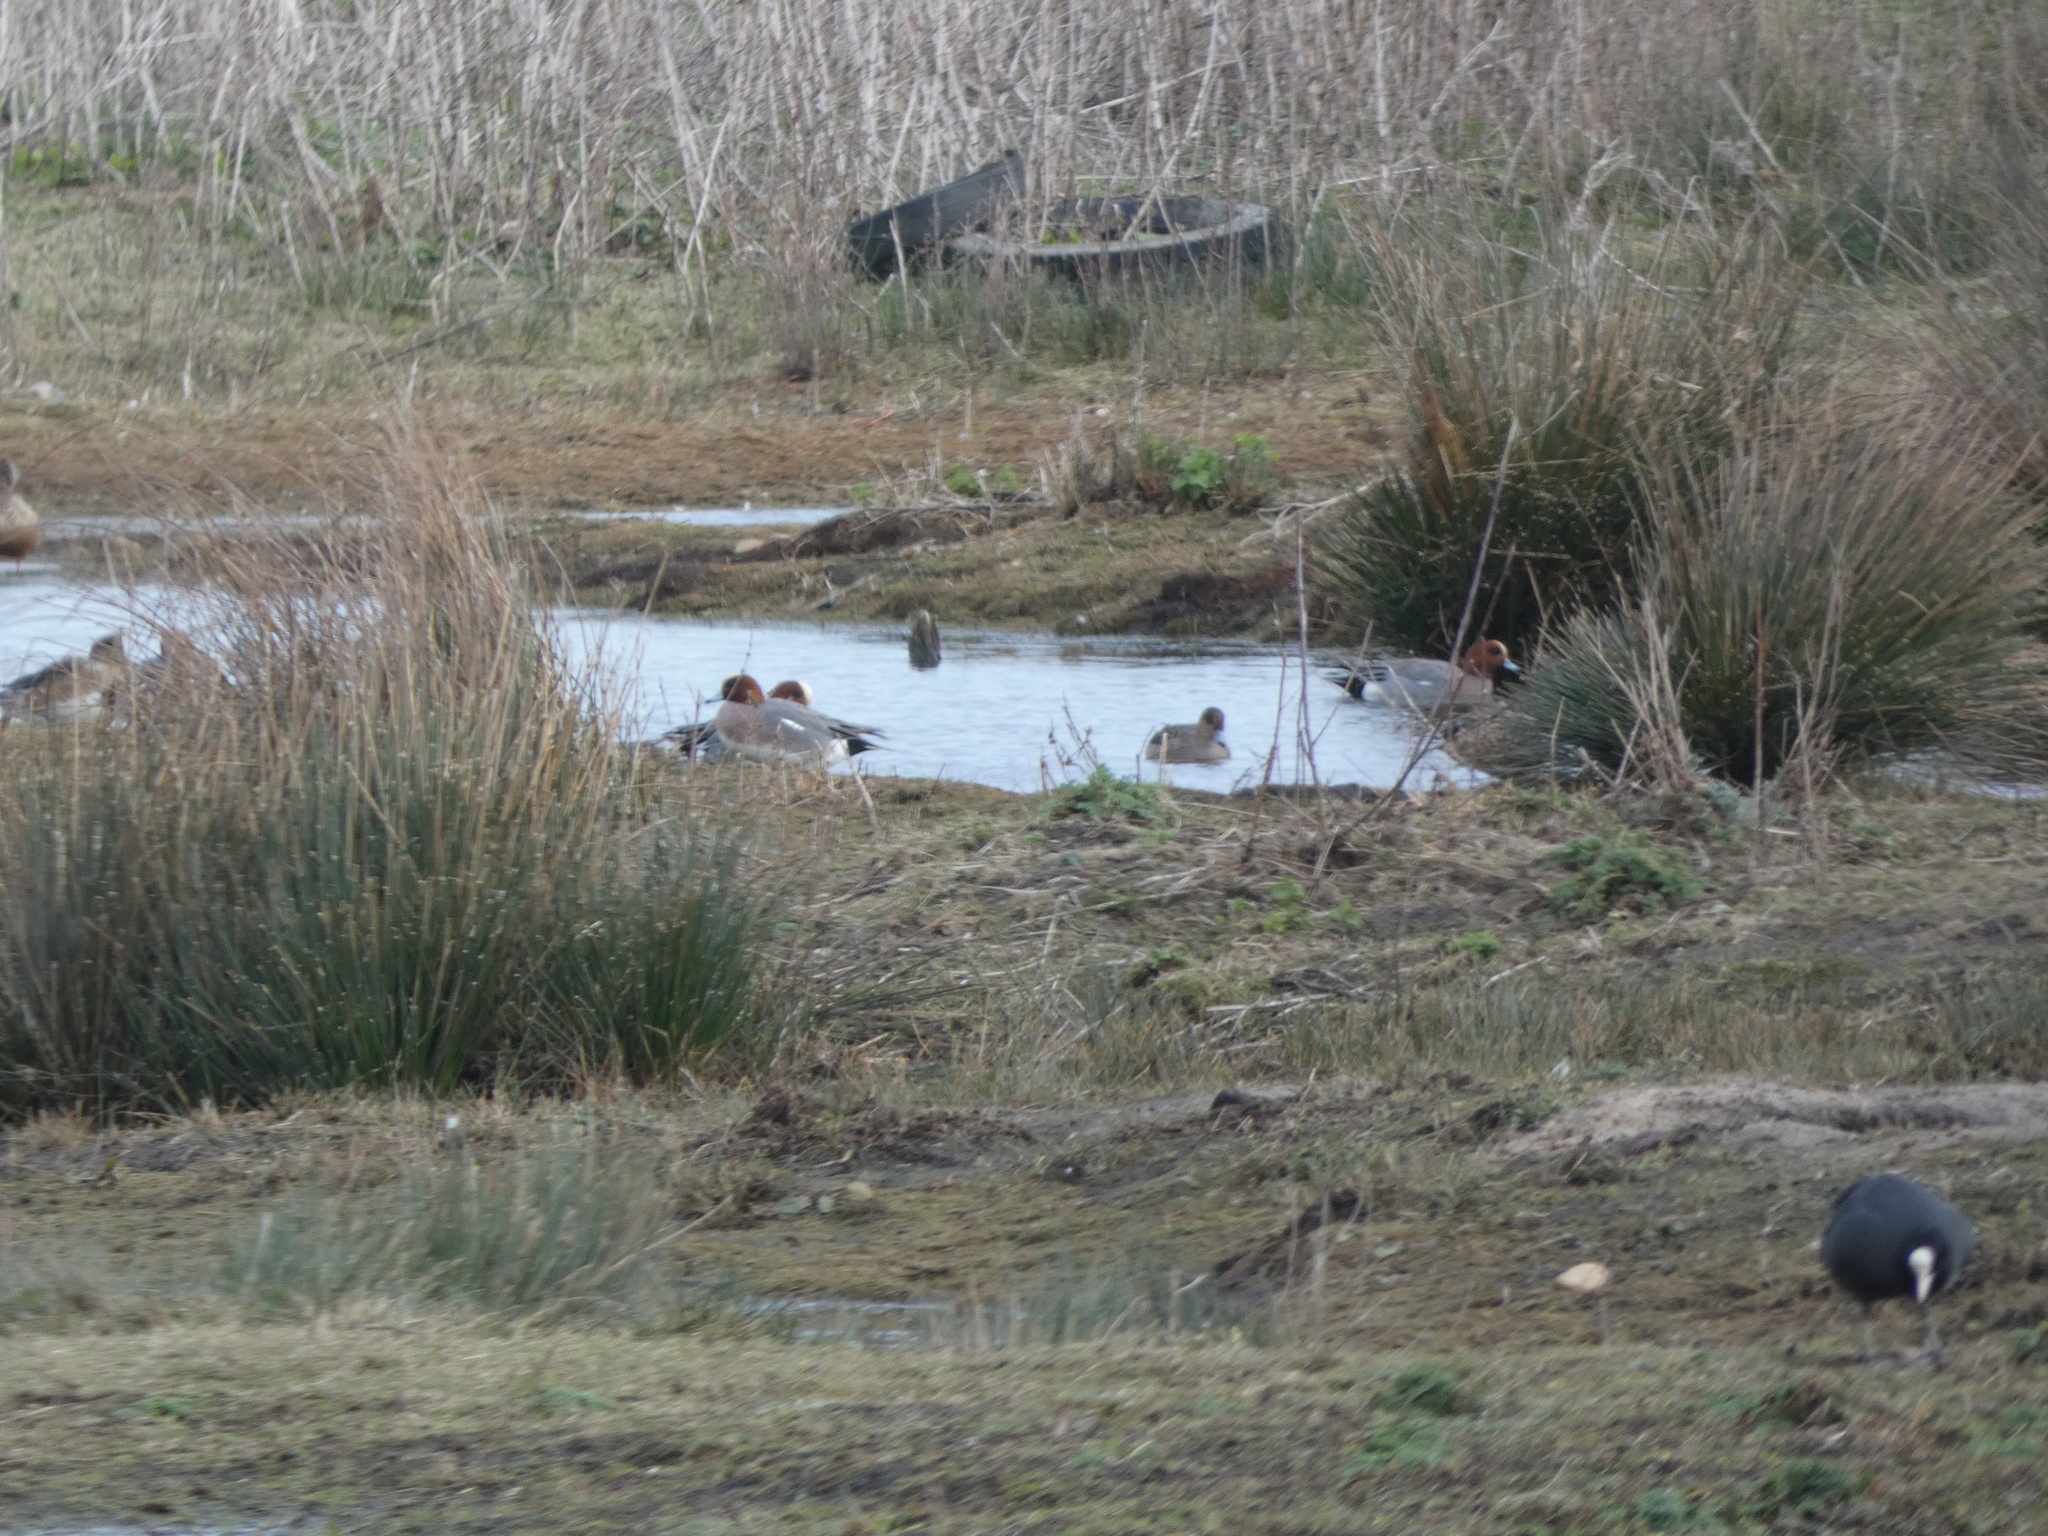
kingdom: Animalia
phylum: Chordata
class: Aves
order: Anseriformes
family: Anatidae
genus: Mareca
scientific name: Mareca penelope
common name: Eurasian wigeon
